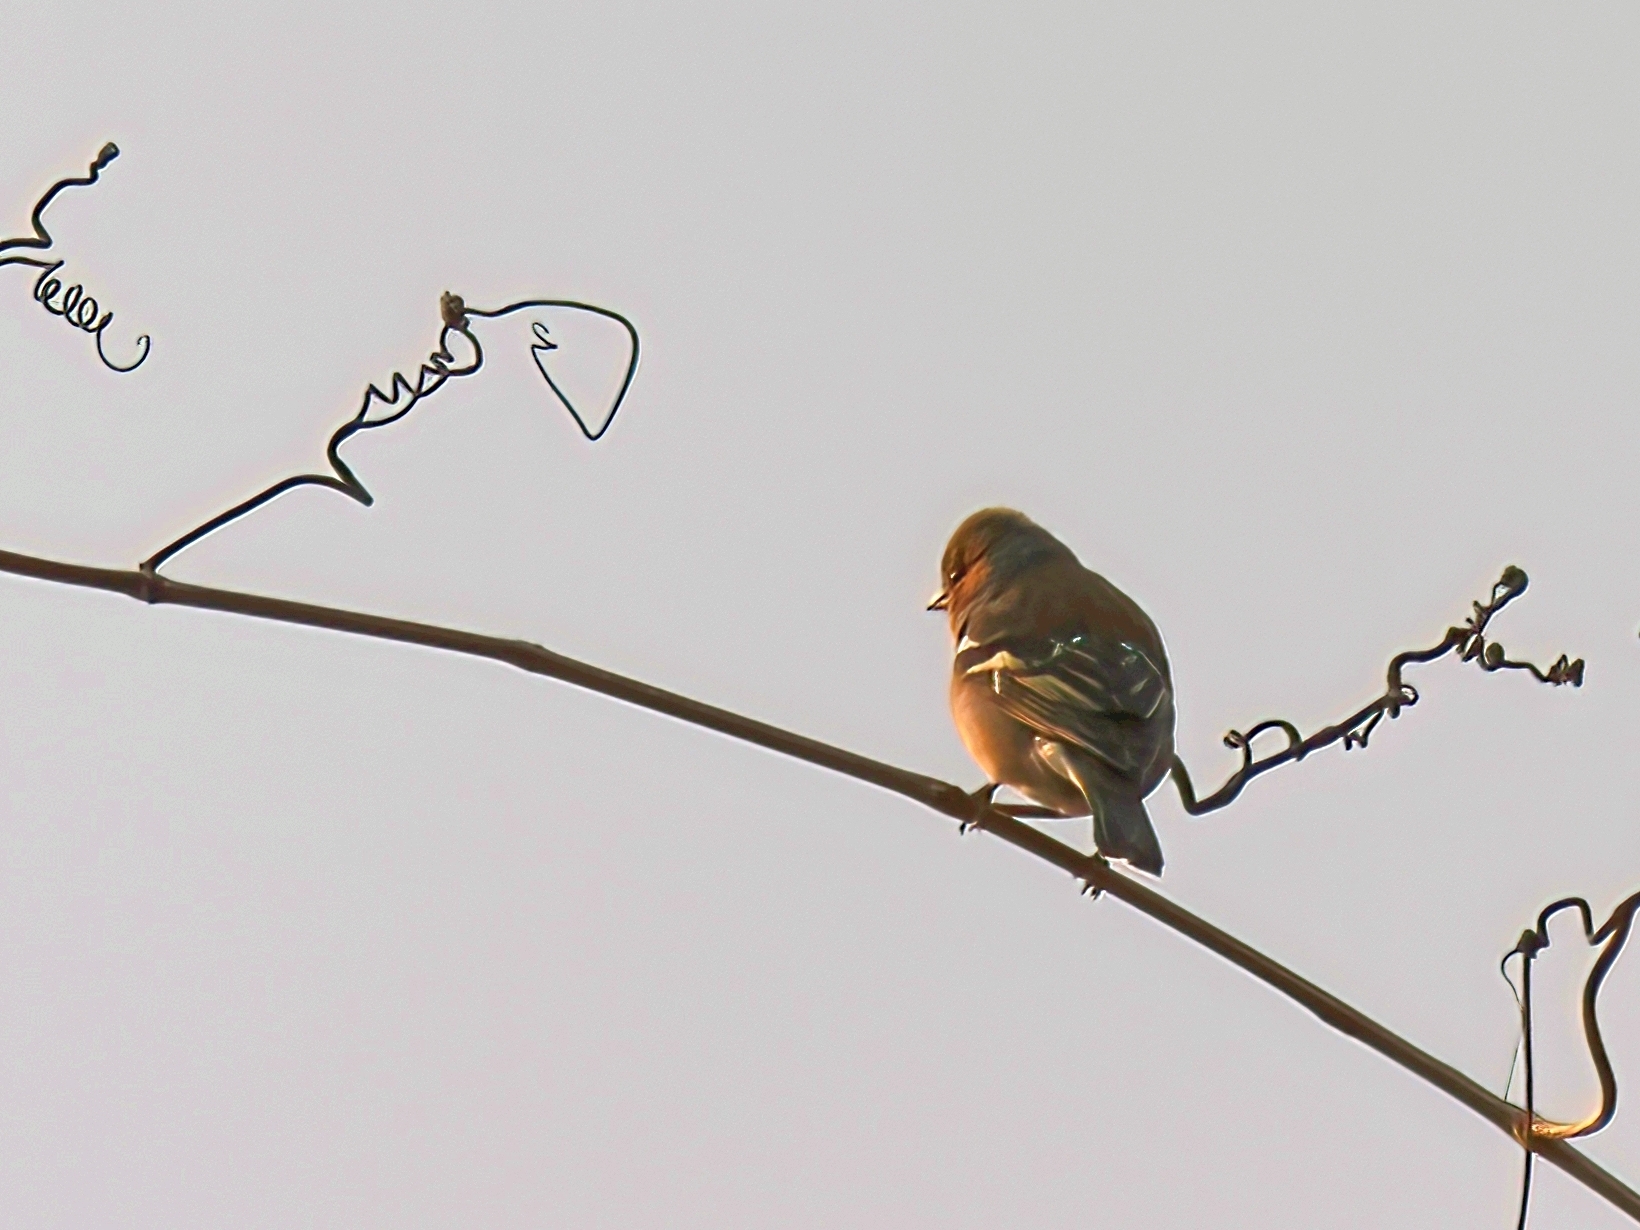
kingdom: Animalia
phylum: Chordata
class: Aves
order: Passeriformes
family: Fringillidae
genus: Fringilla
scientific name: Fringilla coelebs
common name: Common chaffinch
